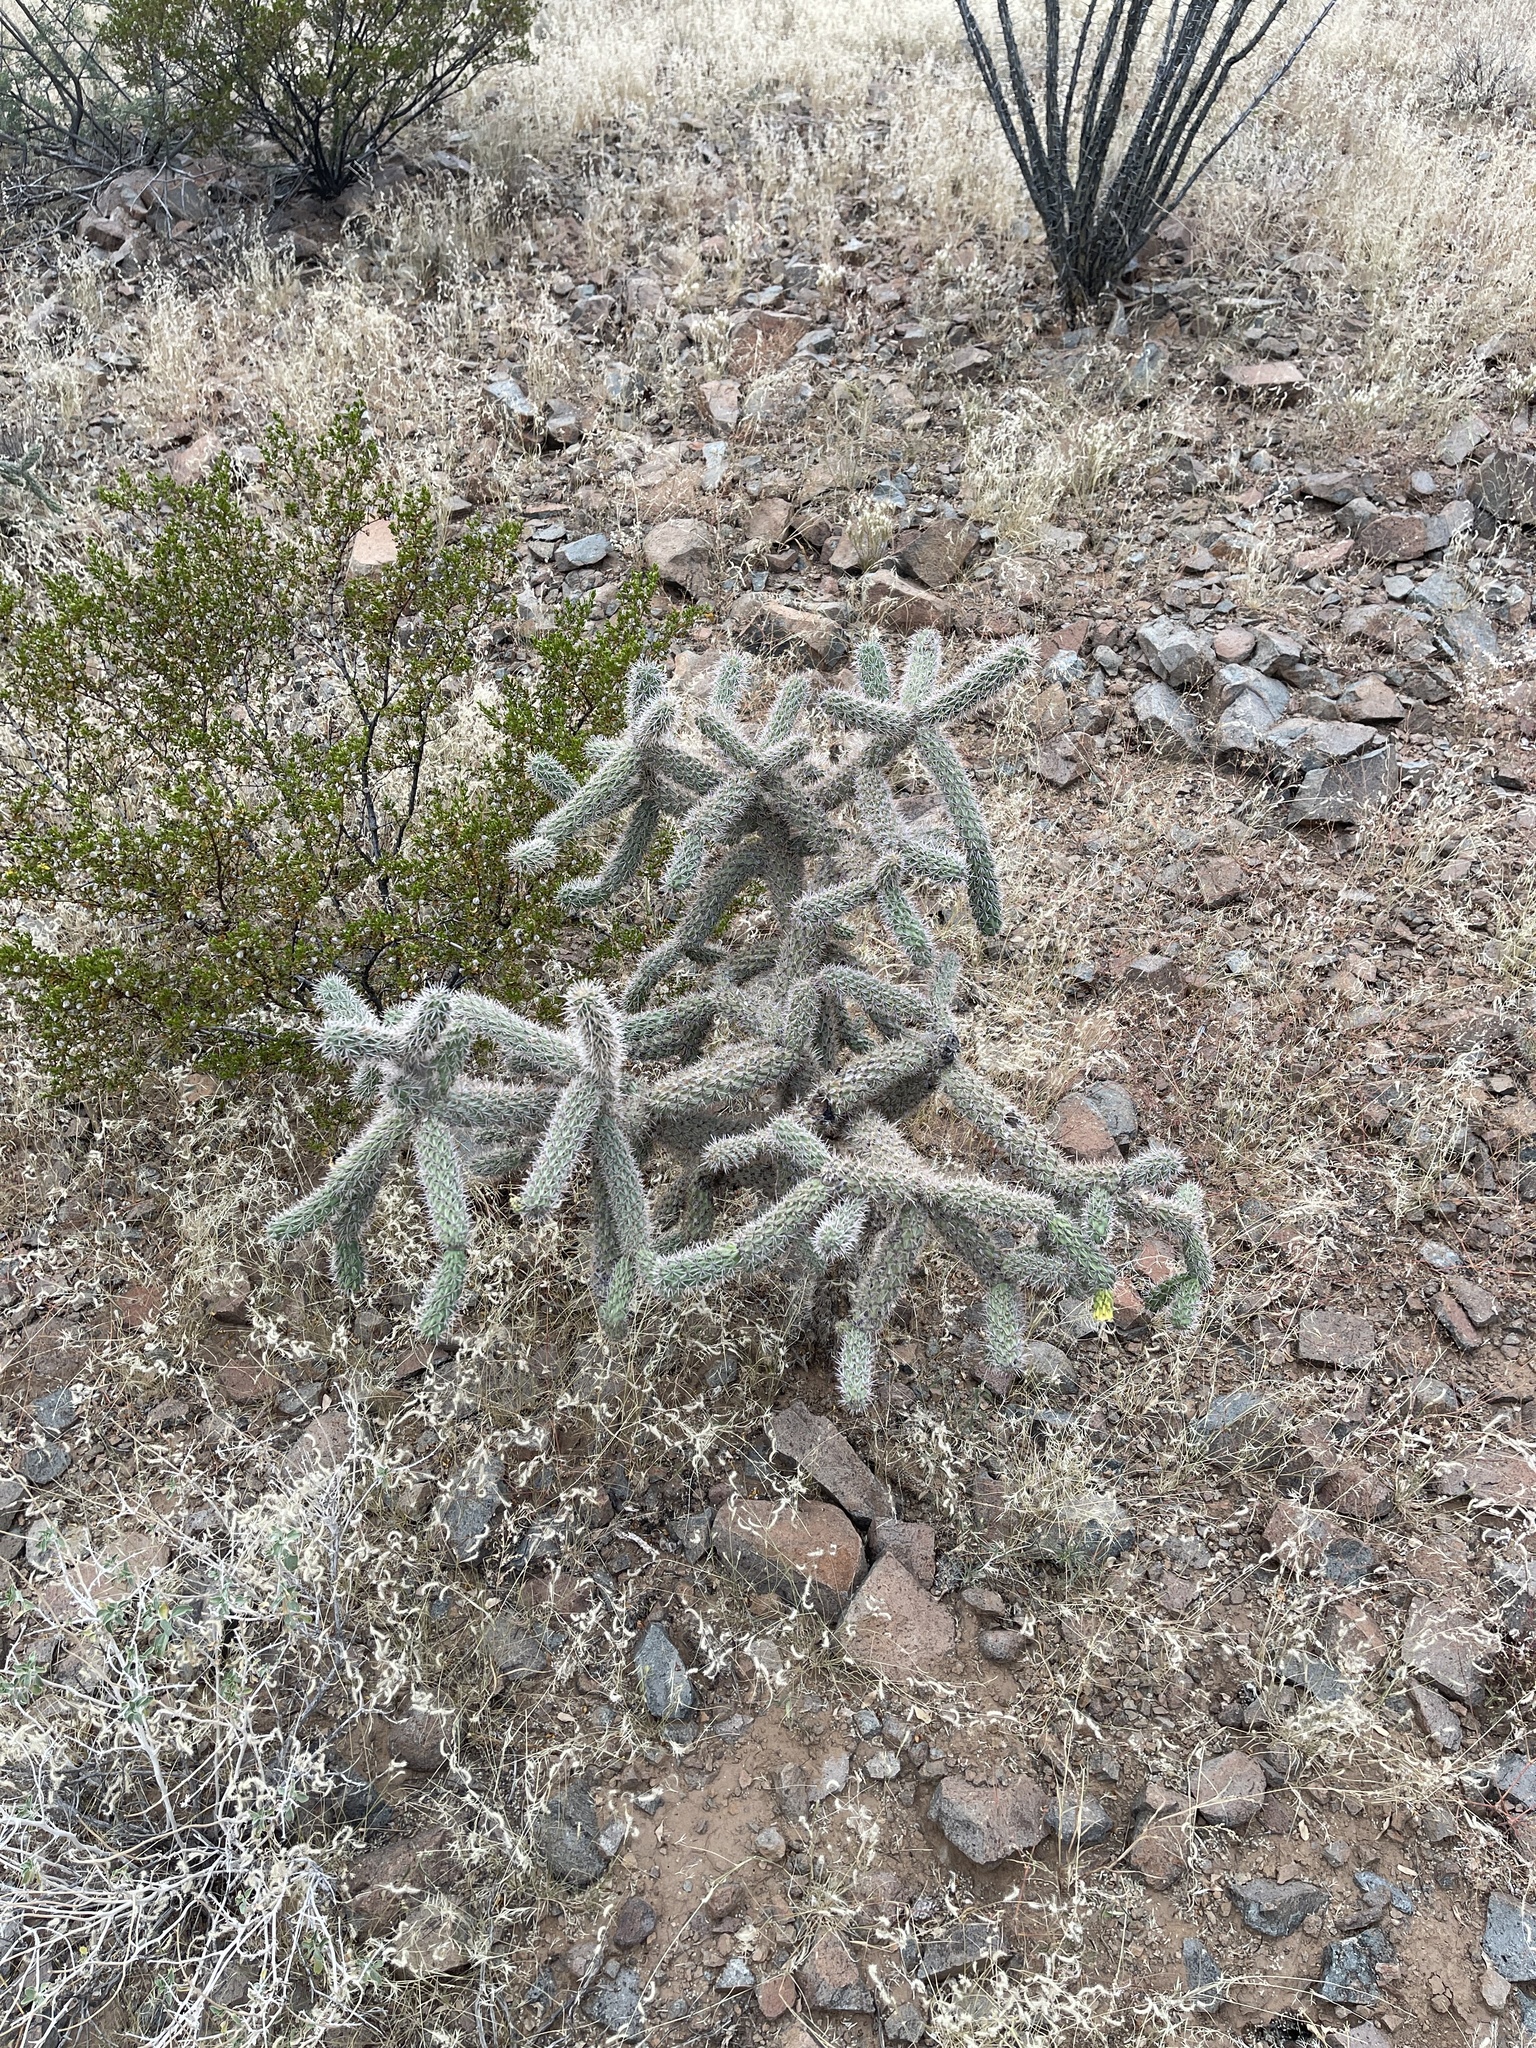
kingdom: Plantae
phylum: Tracheophyta
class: Magnoliopsida
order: Caryophyllales
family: Cactaceae
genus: Cylindropuntia
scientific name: Cylindropuntia imbricata
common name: Candelabrum cactus
